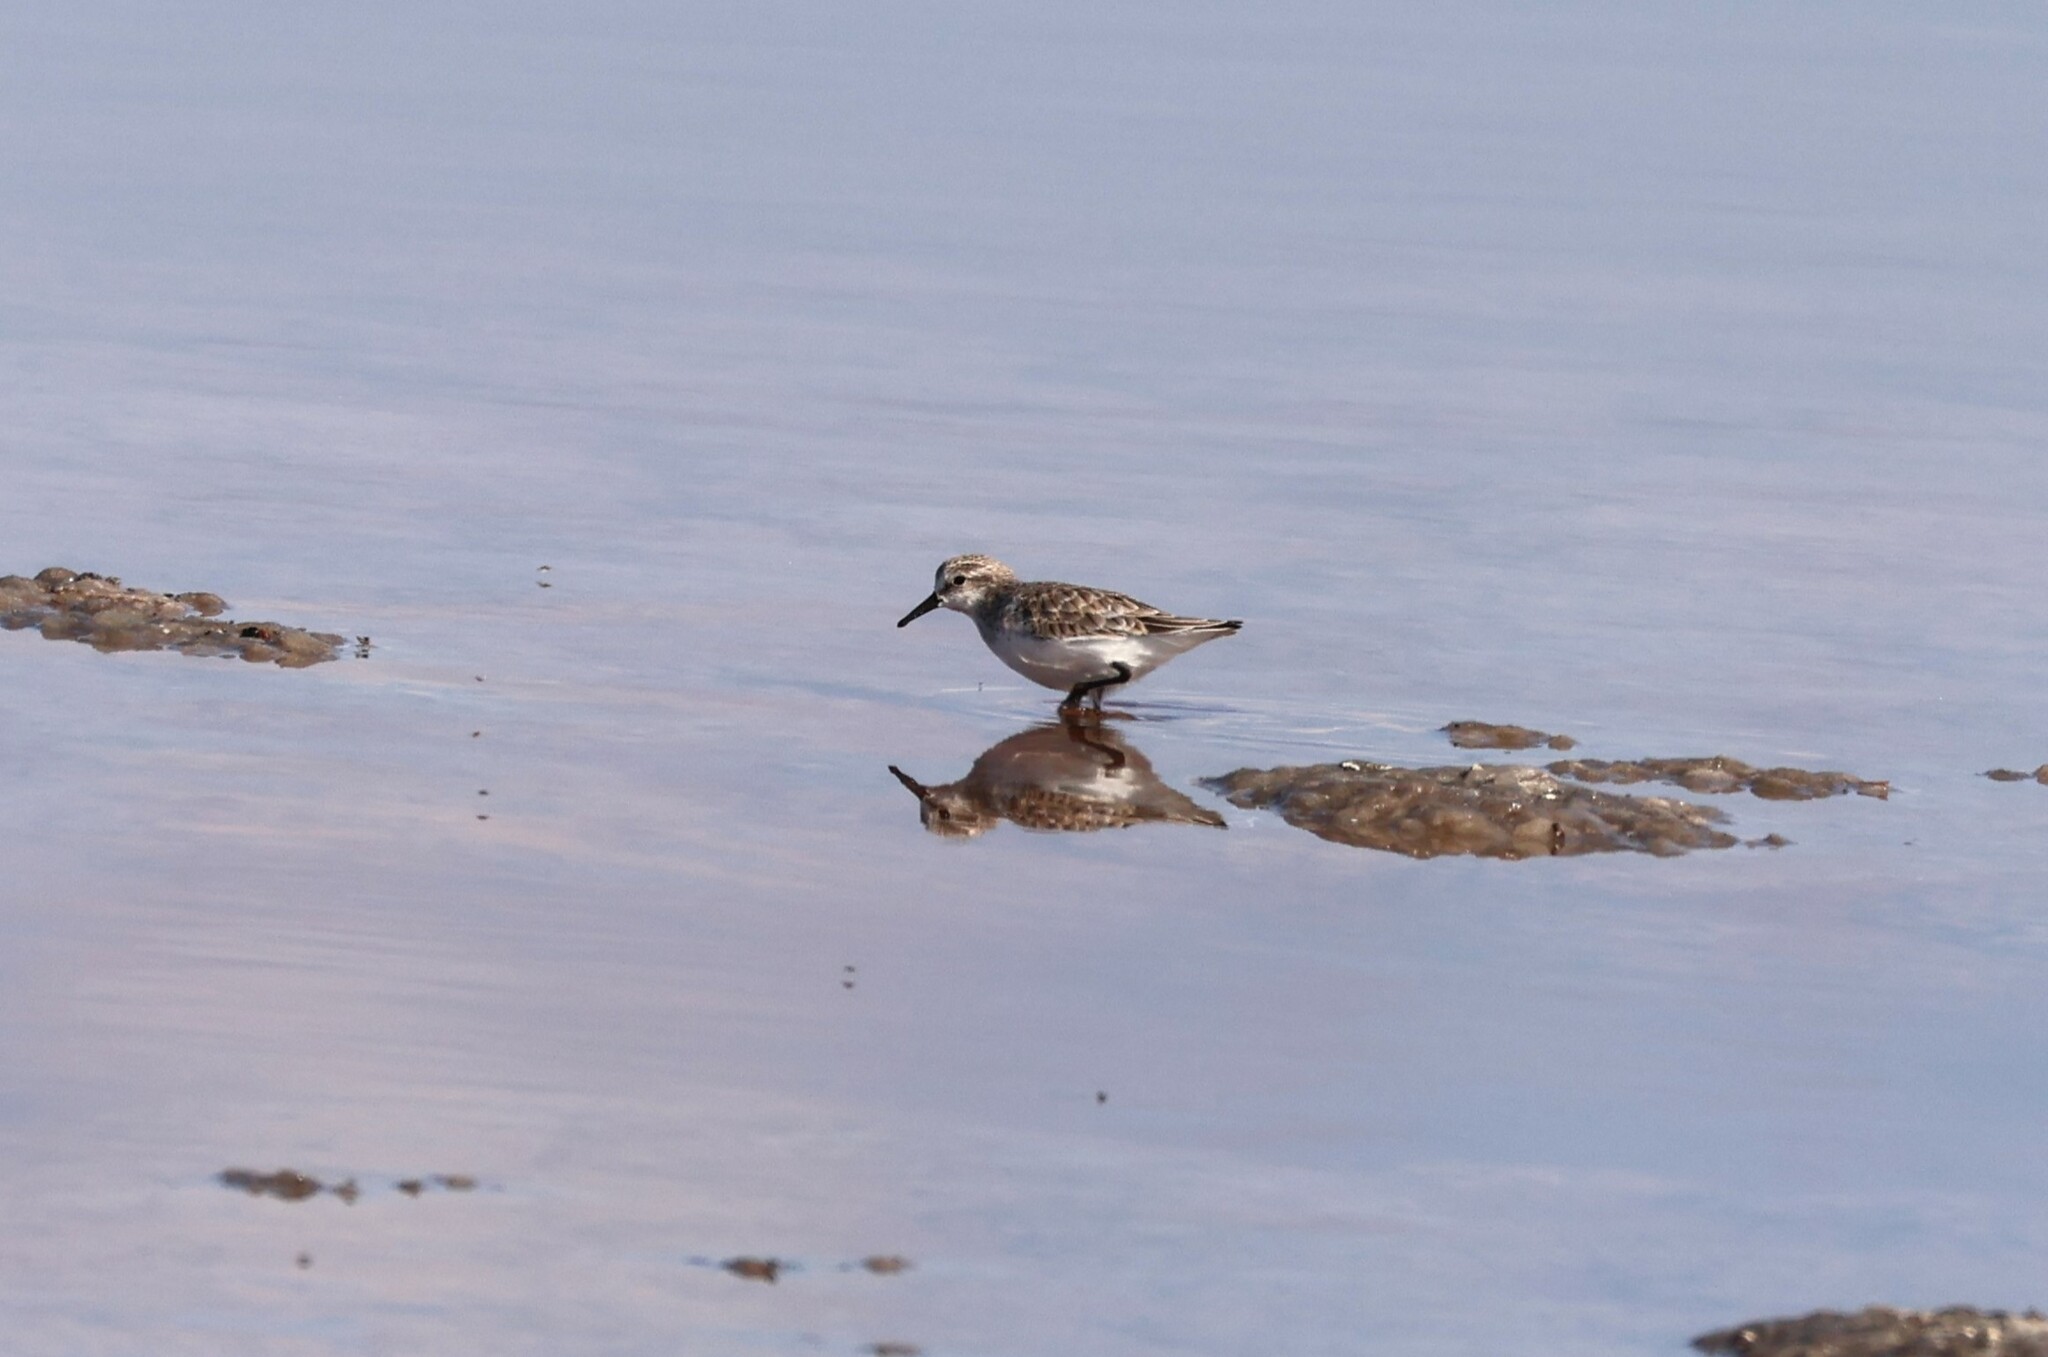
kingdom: Animalia
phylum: Chordata
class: Aves
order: Charadriiformes
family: Scolopacidae
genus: Calidris
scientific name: Calidris minuta
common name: Little stint
